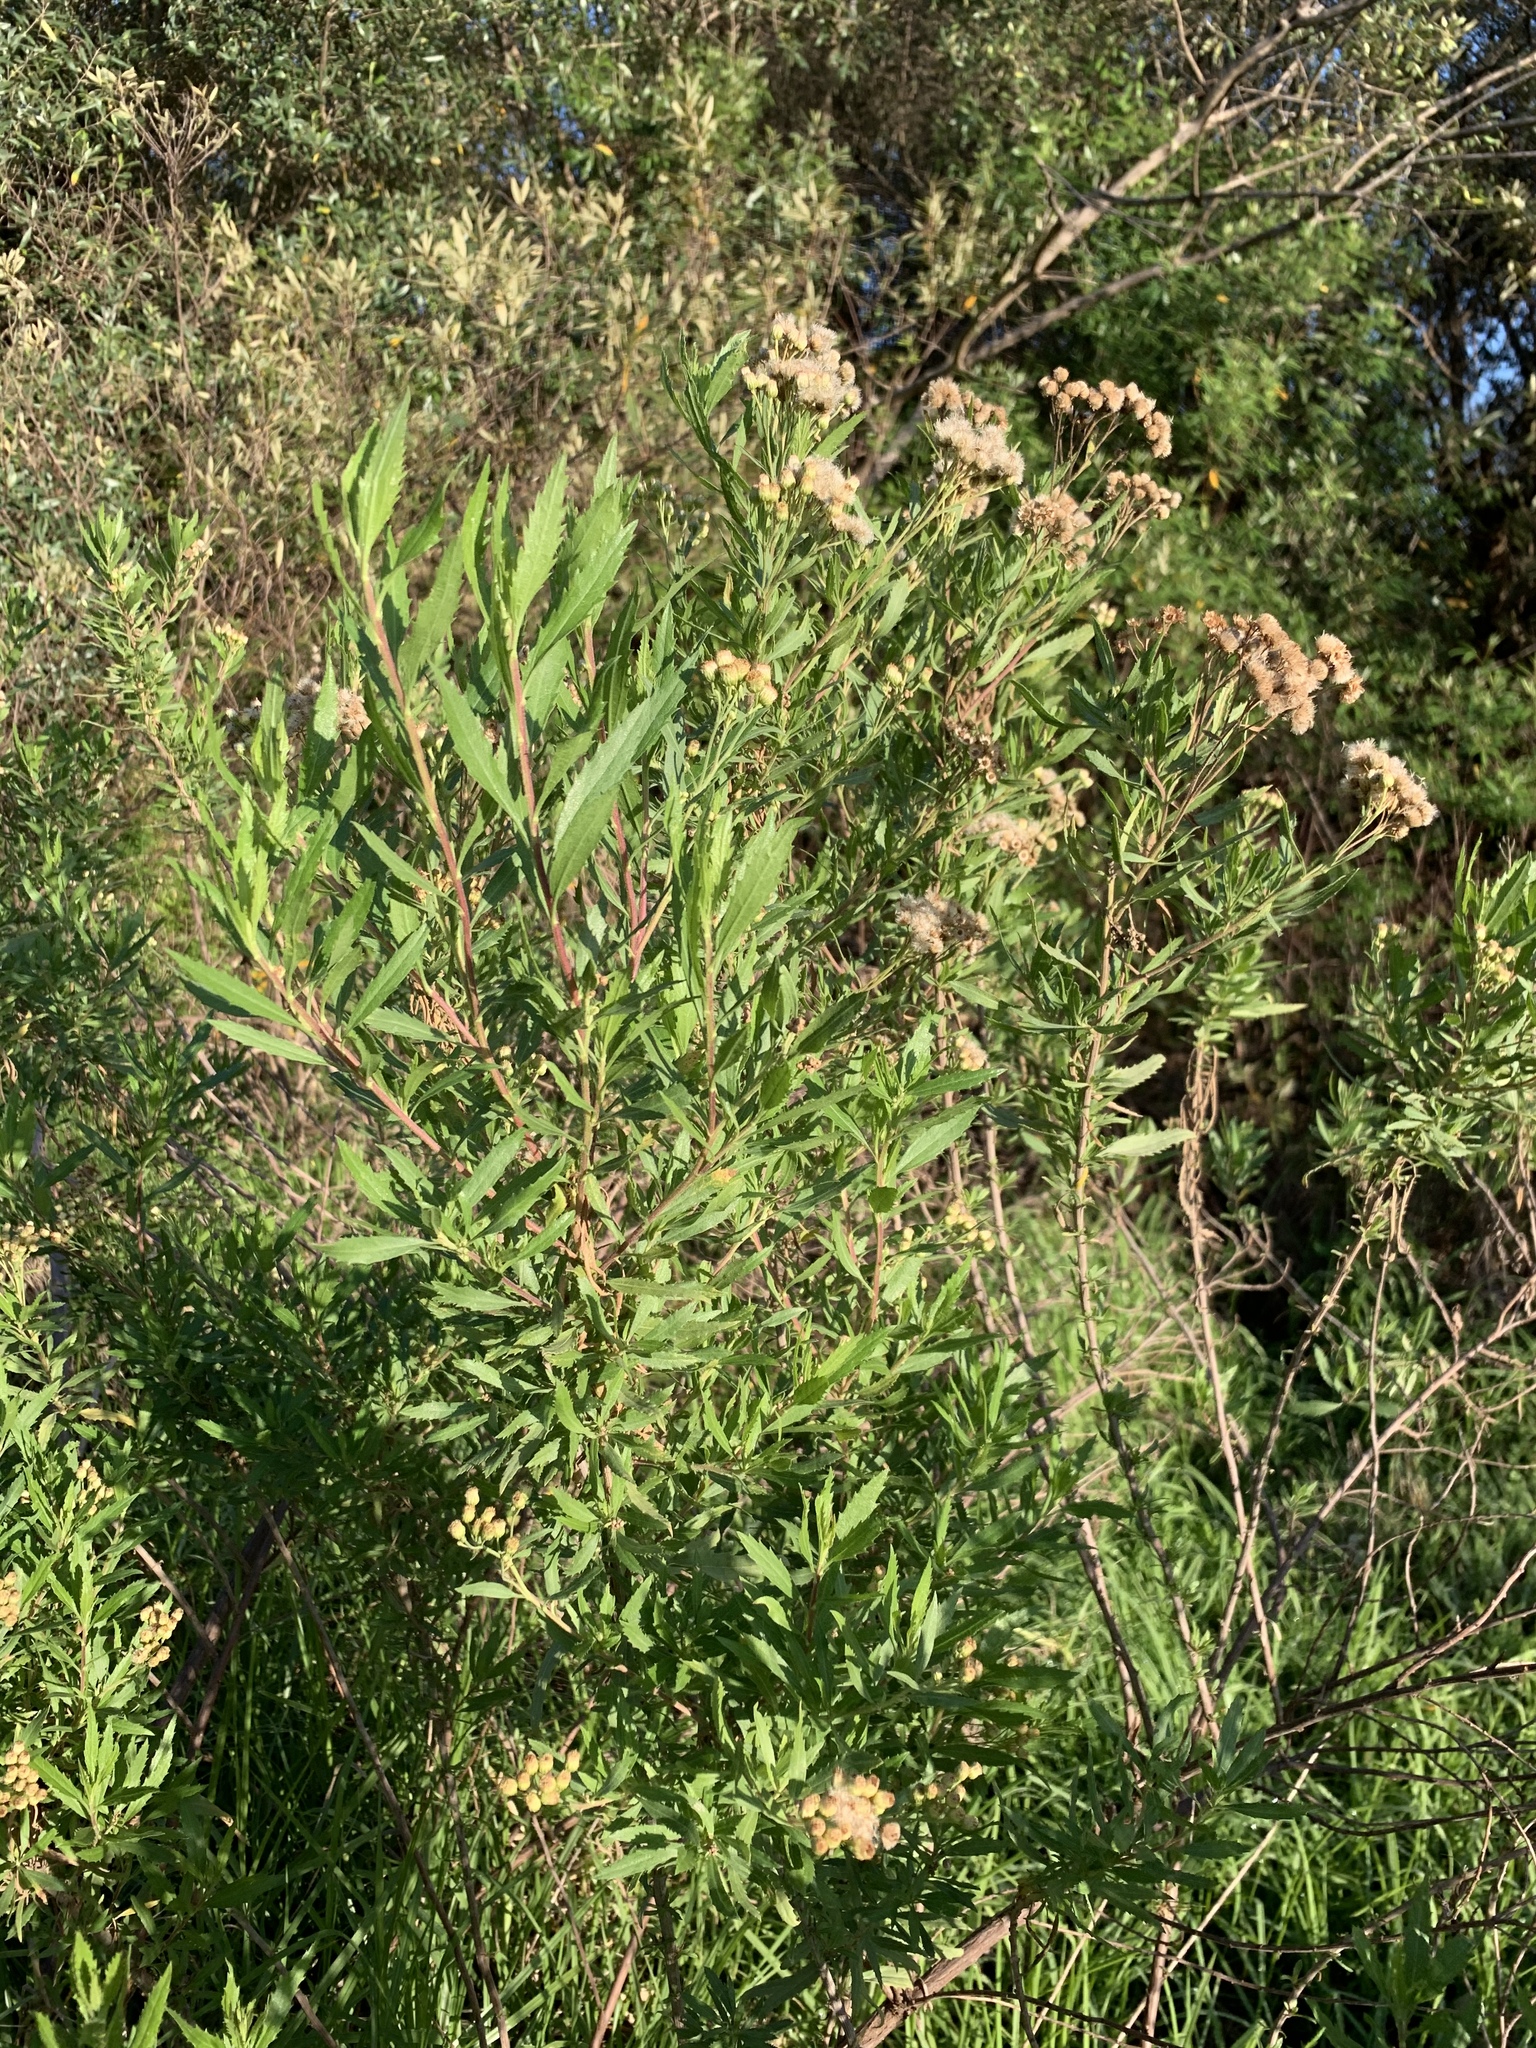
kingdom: Plantae
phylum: Tracheophyta
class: Magnoliopsida
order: Asterales
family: Asteraceae
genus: Nidorella
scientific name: Nidorella ivifolia
